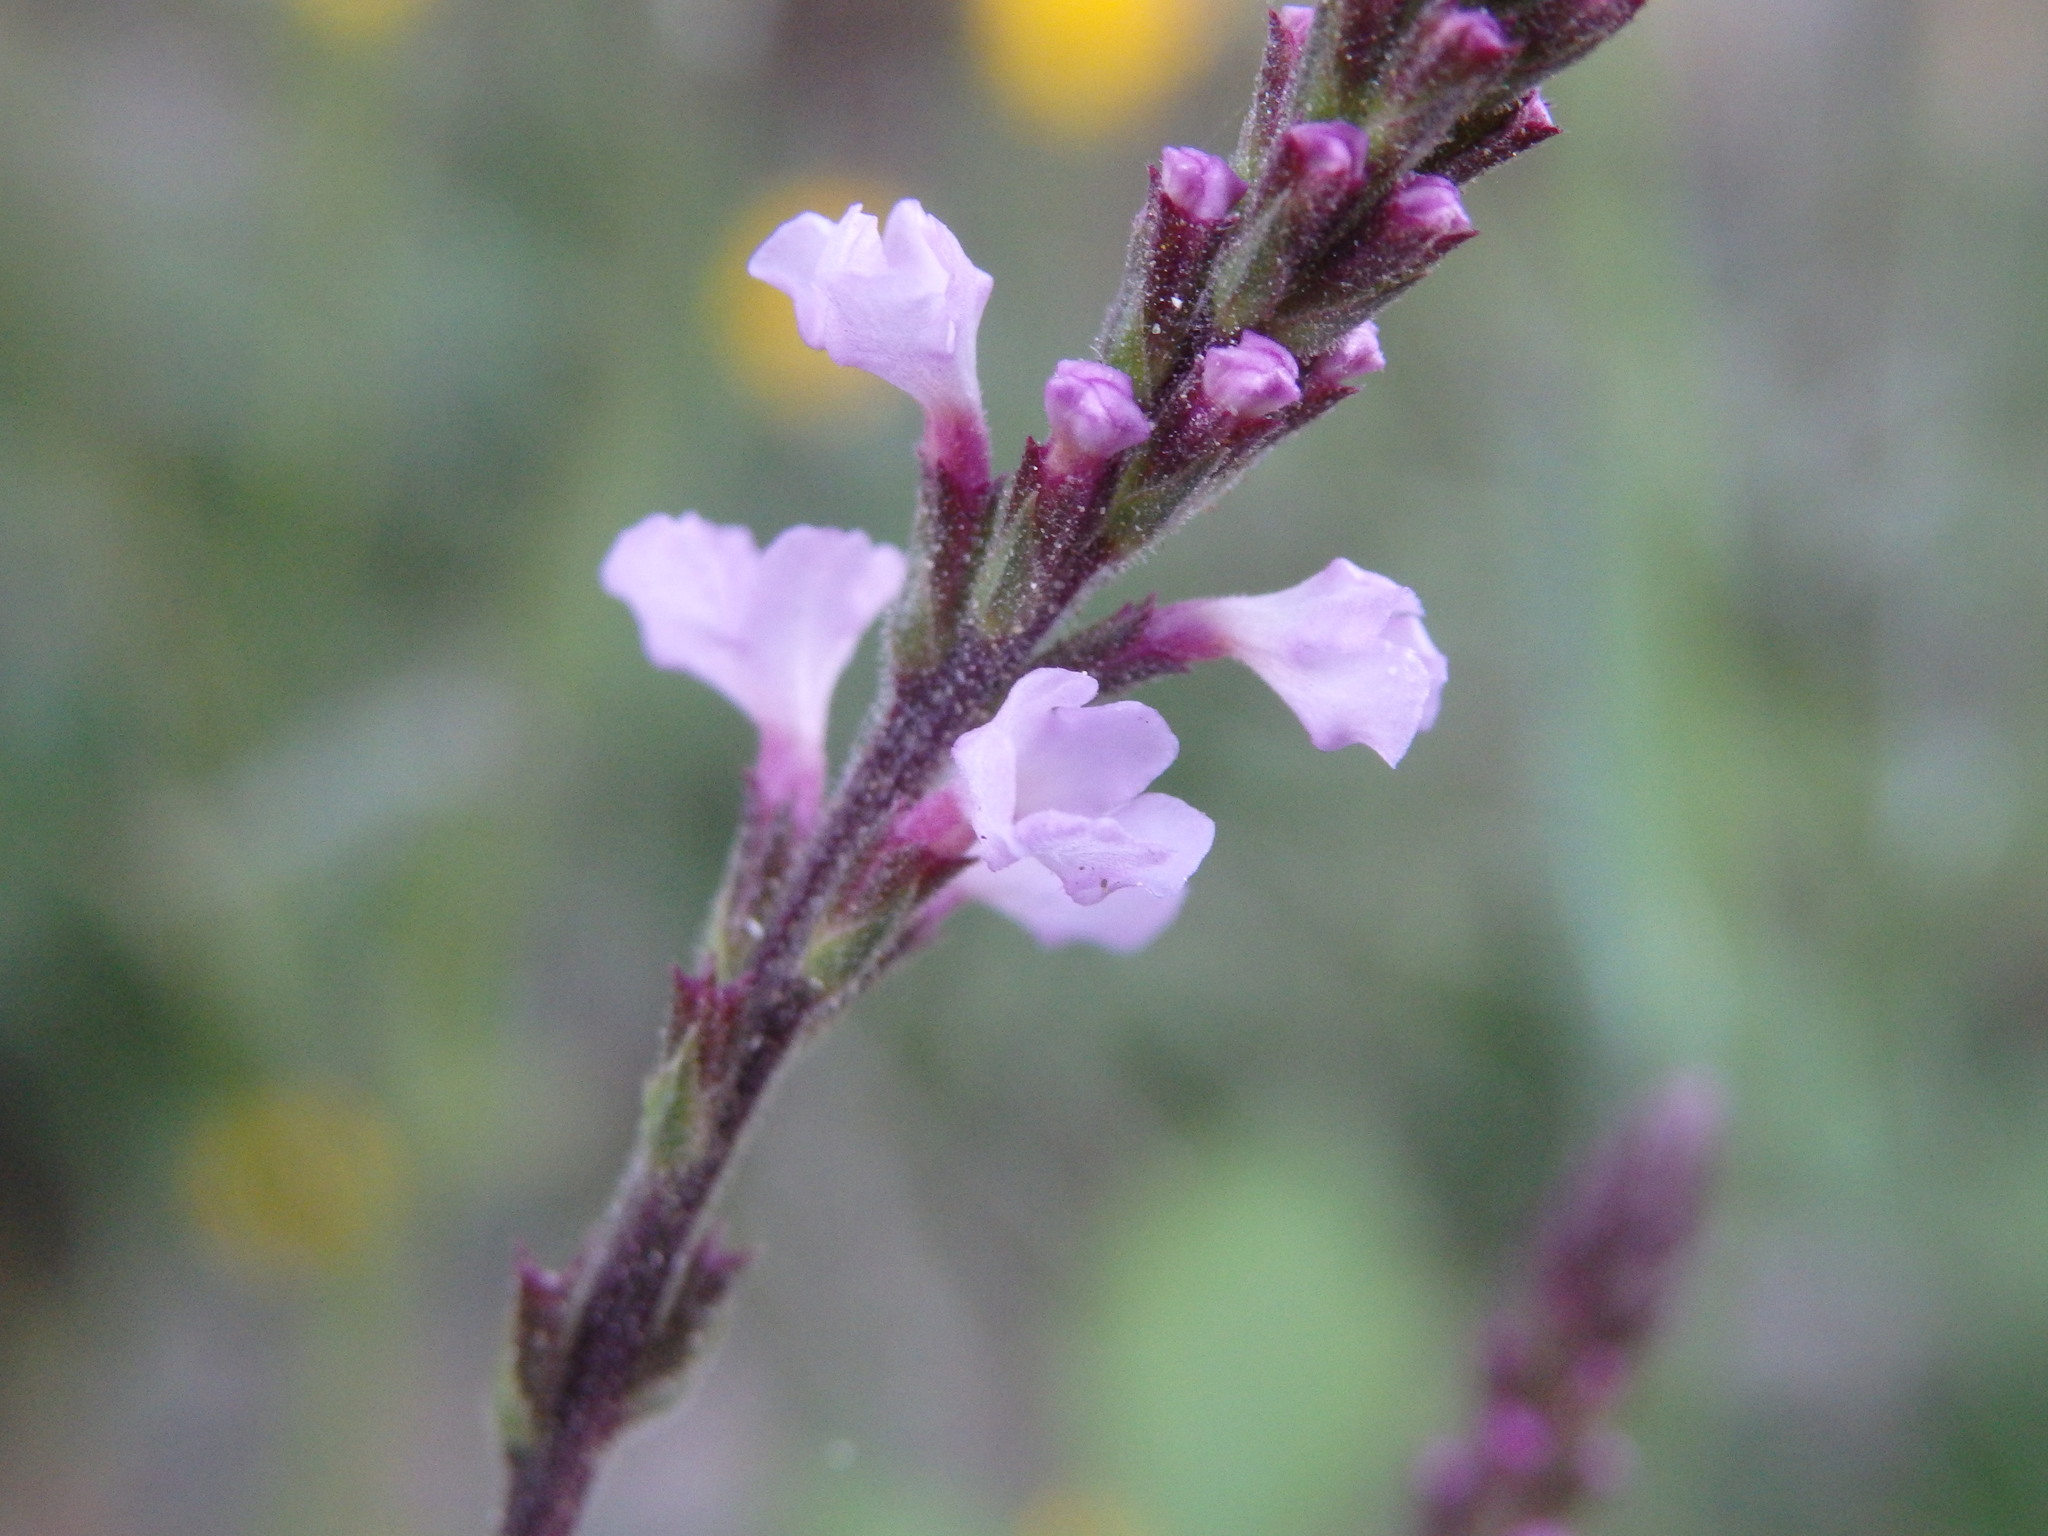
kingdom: Plantae
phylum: Tracheophyta
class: Magnoliopsida
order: Lamiales
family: Verbenaceae
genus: Verbena
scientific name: Verbena officinalis
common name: Vervain
